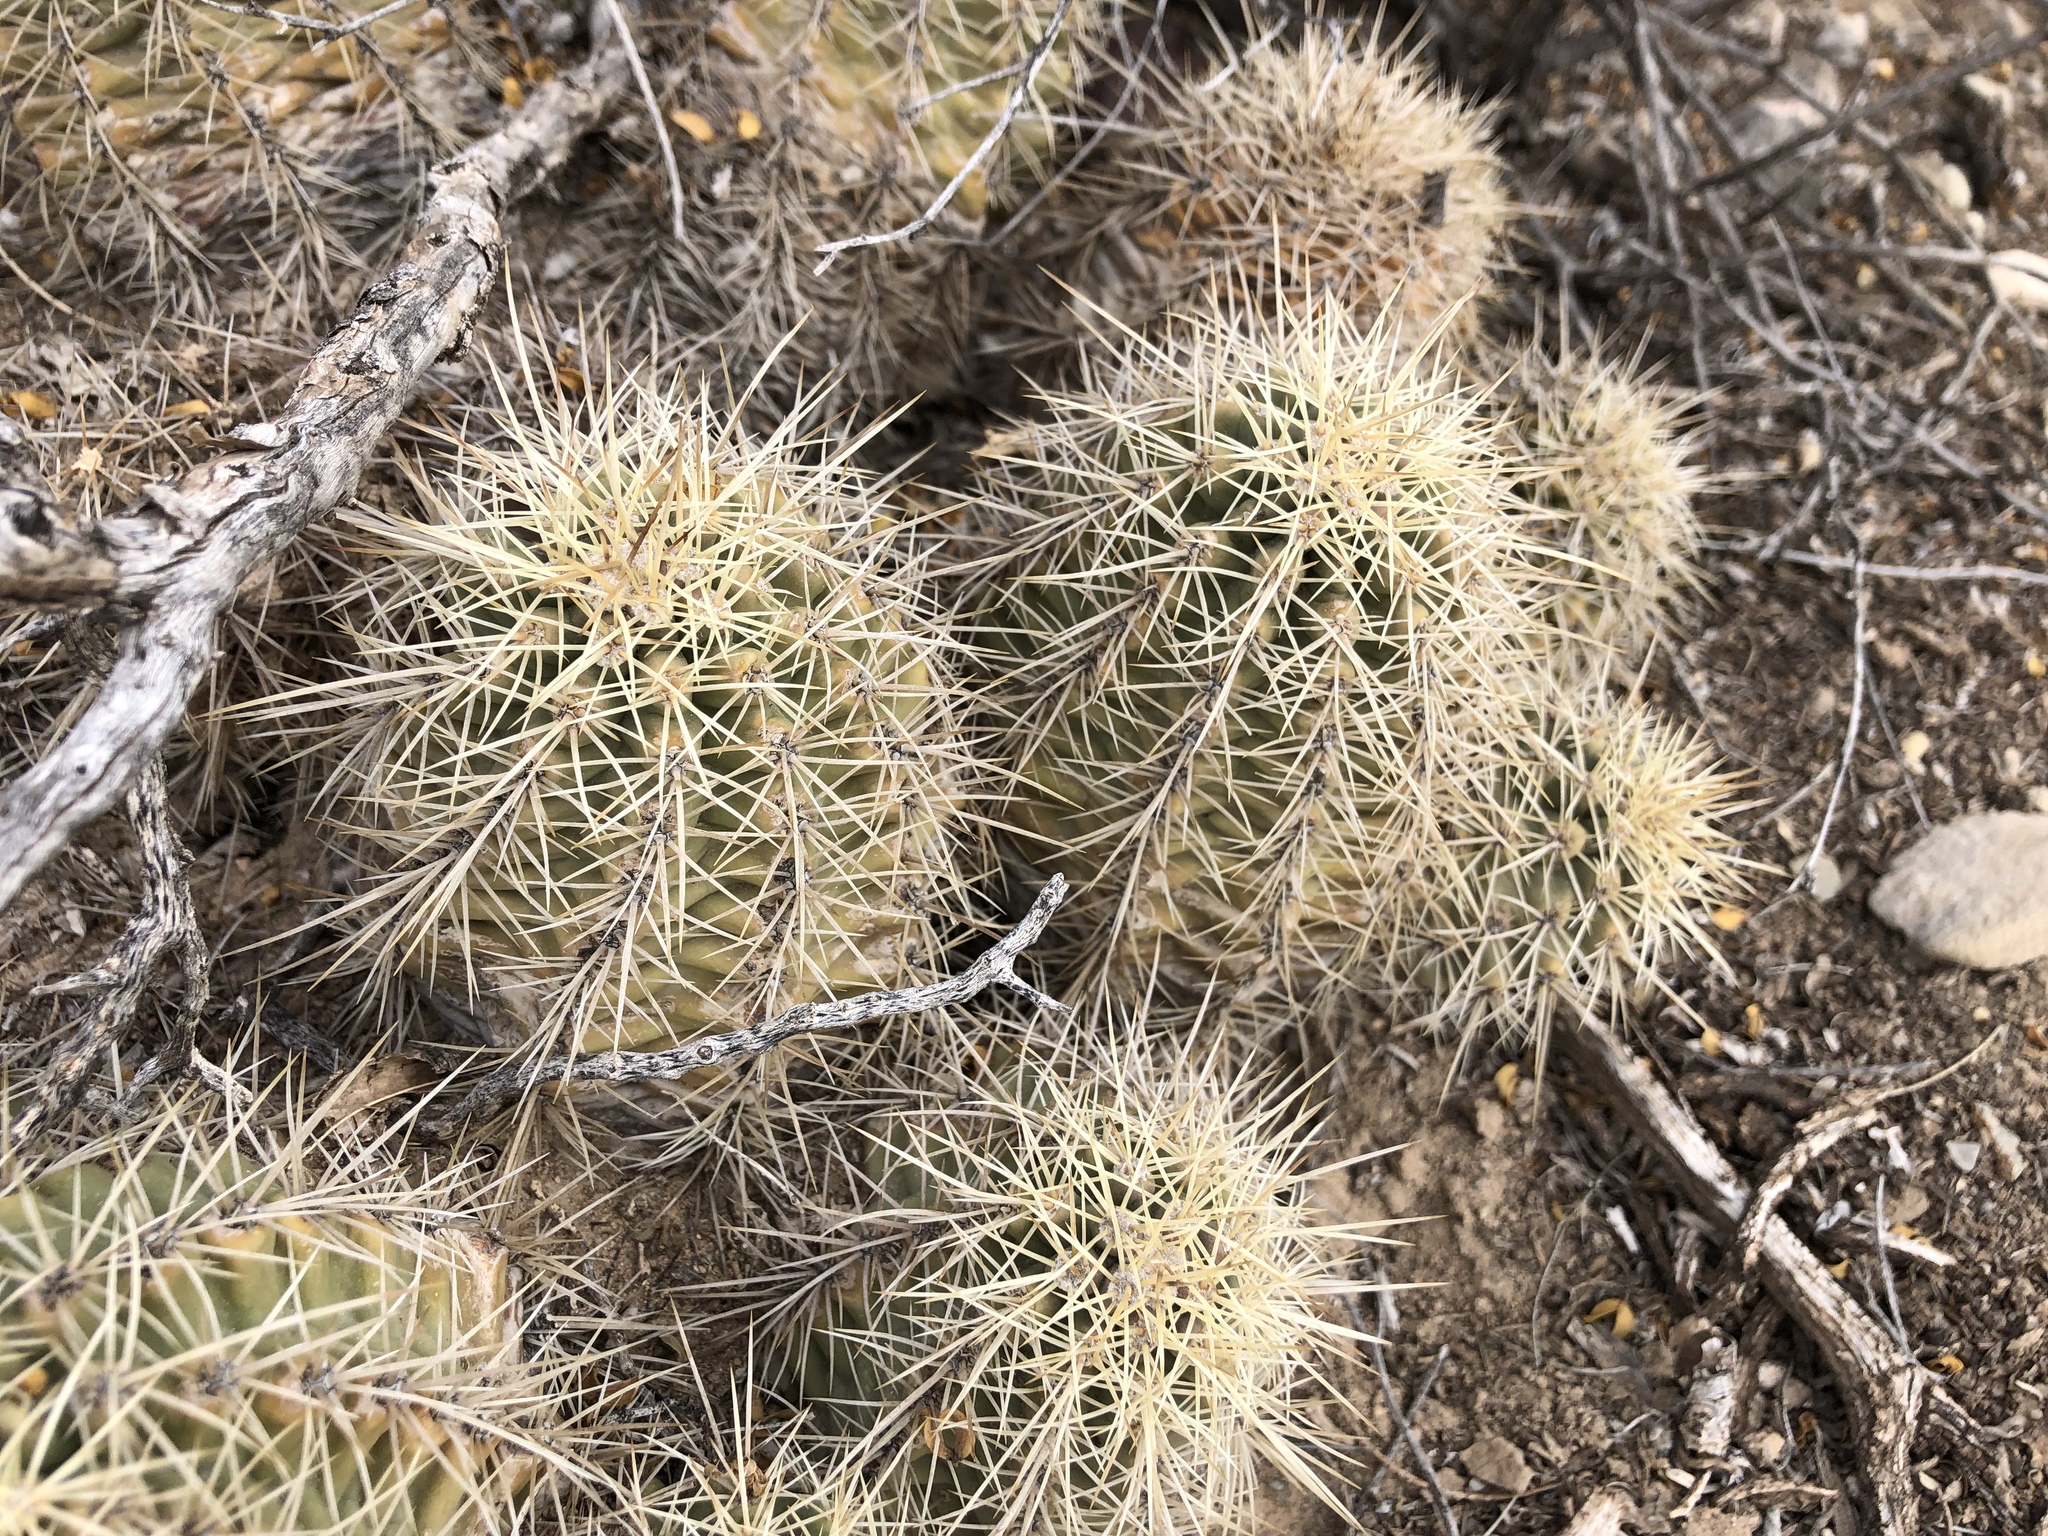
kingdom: Plantae
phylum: Tracheophyta
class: Magnoliopsida
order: Caryophyllales
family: Cactaceae
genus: Echinocereus
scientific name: Echinocereus coccineus
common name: Scarlet hedgehog cactus
